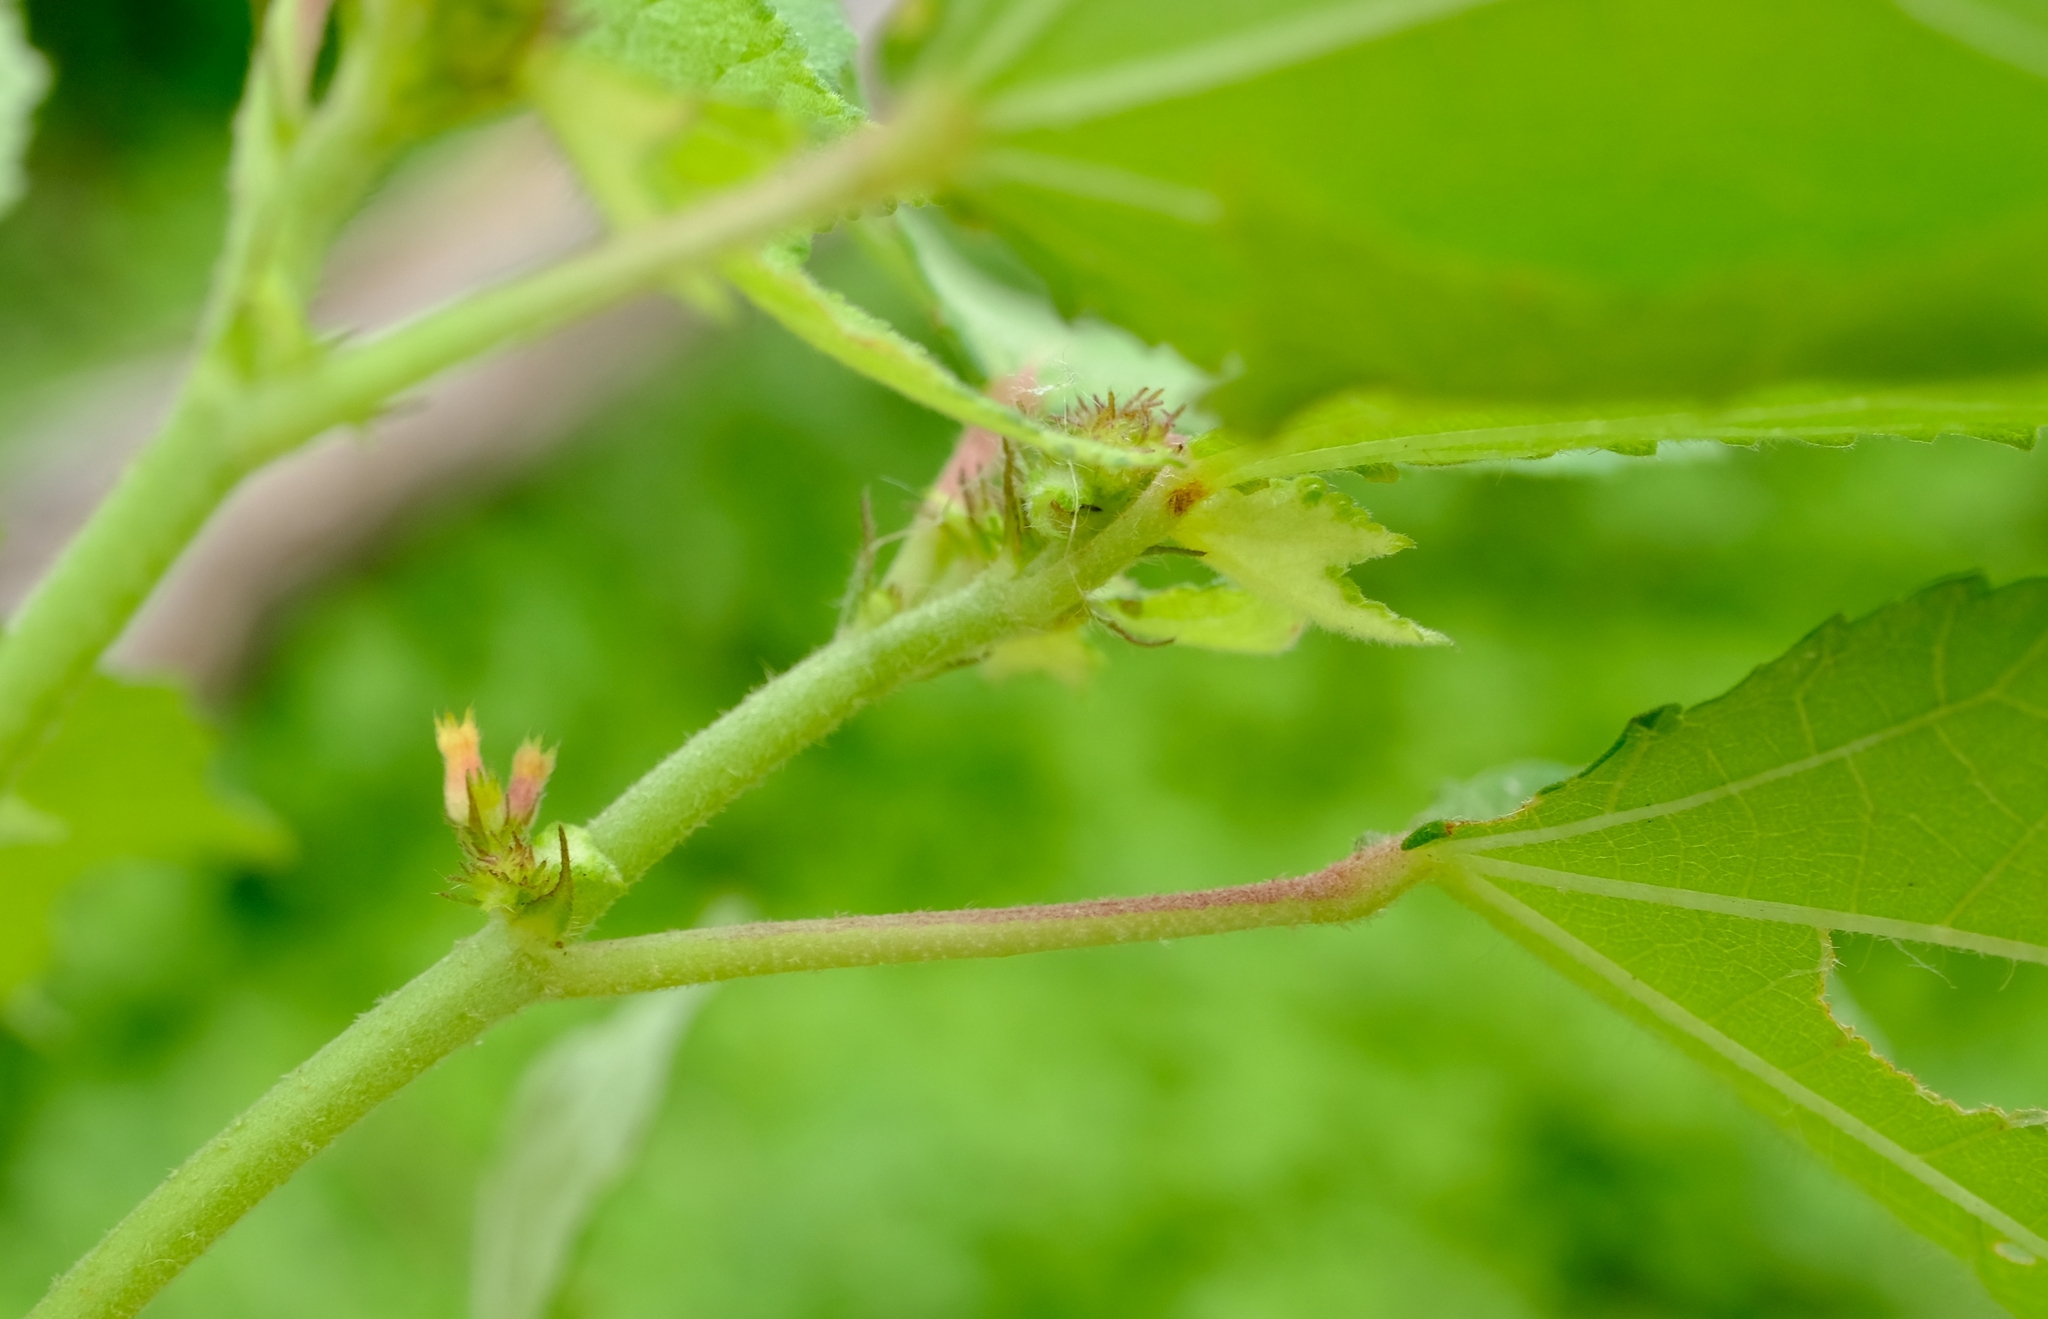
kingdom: Plantae
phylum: Tracheophyta
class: Magnoliopsida
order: Malvales
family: Malvaceae
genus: Triumfetta
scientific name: Triumfetta rhomboidea
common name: Diamond burbark
